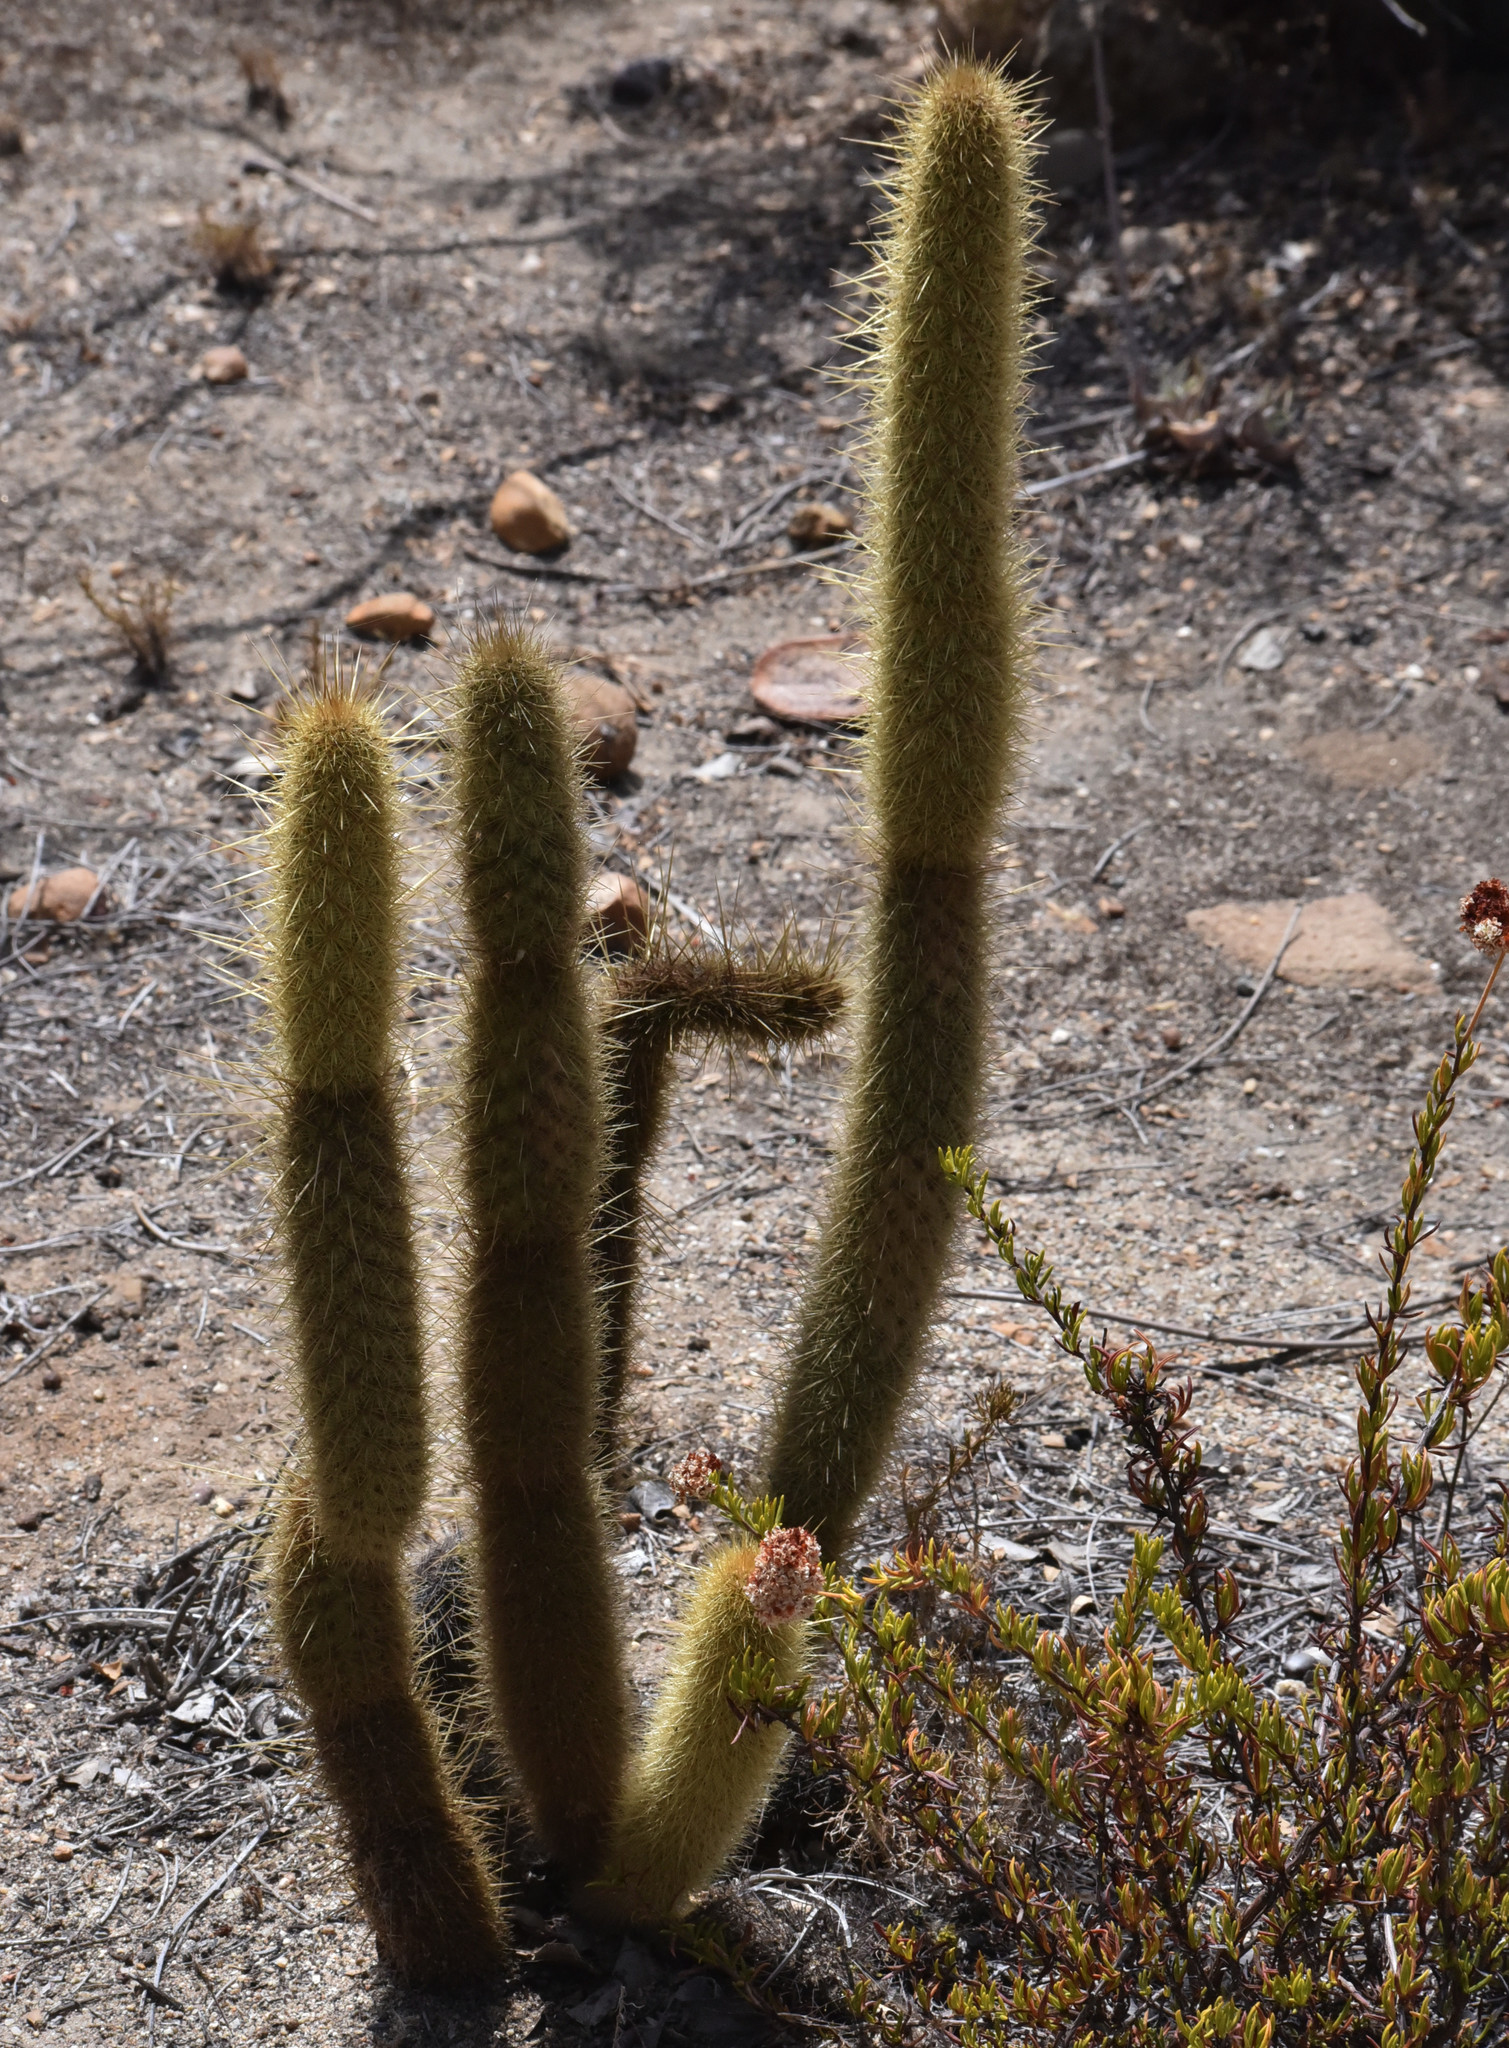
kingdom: Plantae
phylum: Tracheophyta
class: Magnoliopsida
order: Caryophyllales
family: Cactaceae
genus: Bergerocactus
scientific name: Bergerocactus emoryi
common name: Golden snakecactus
